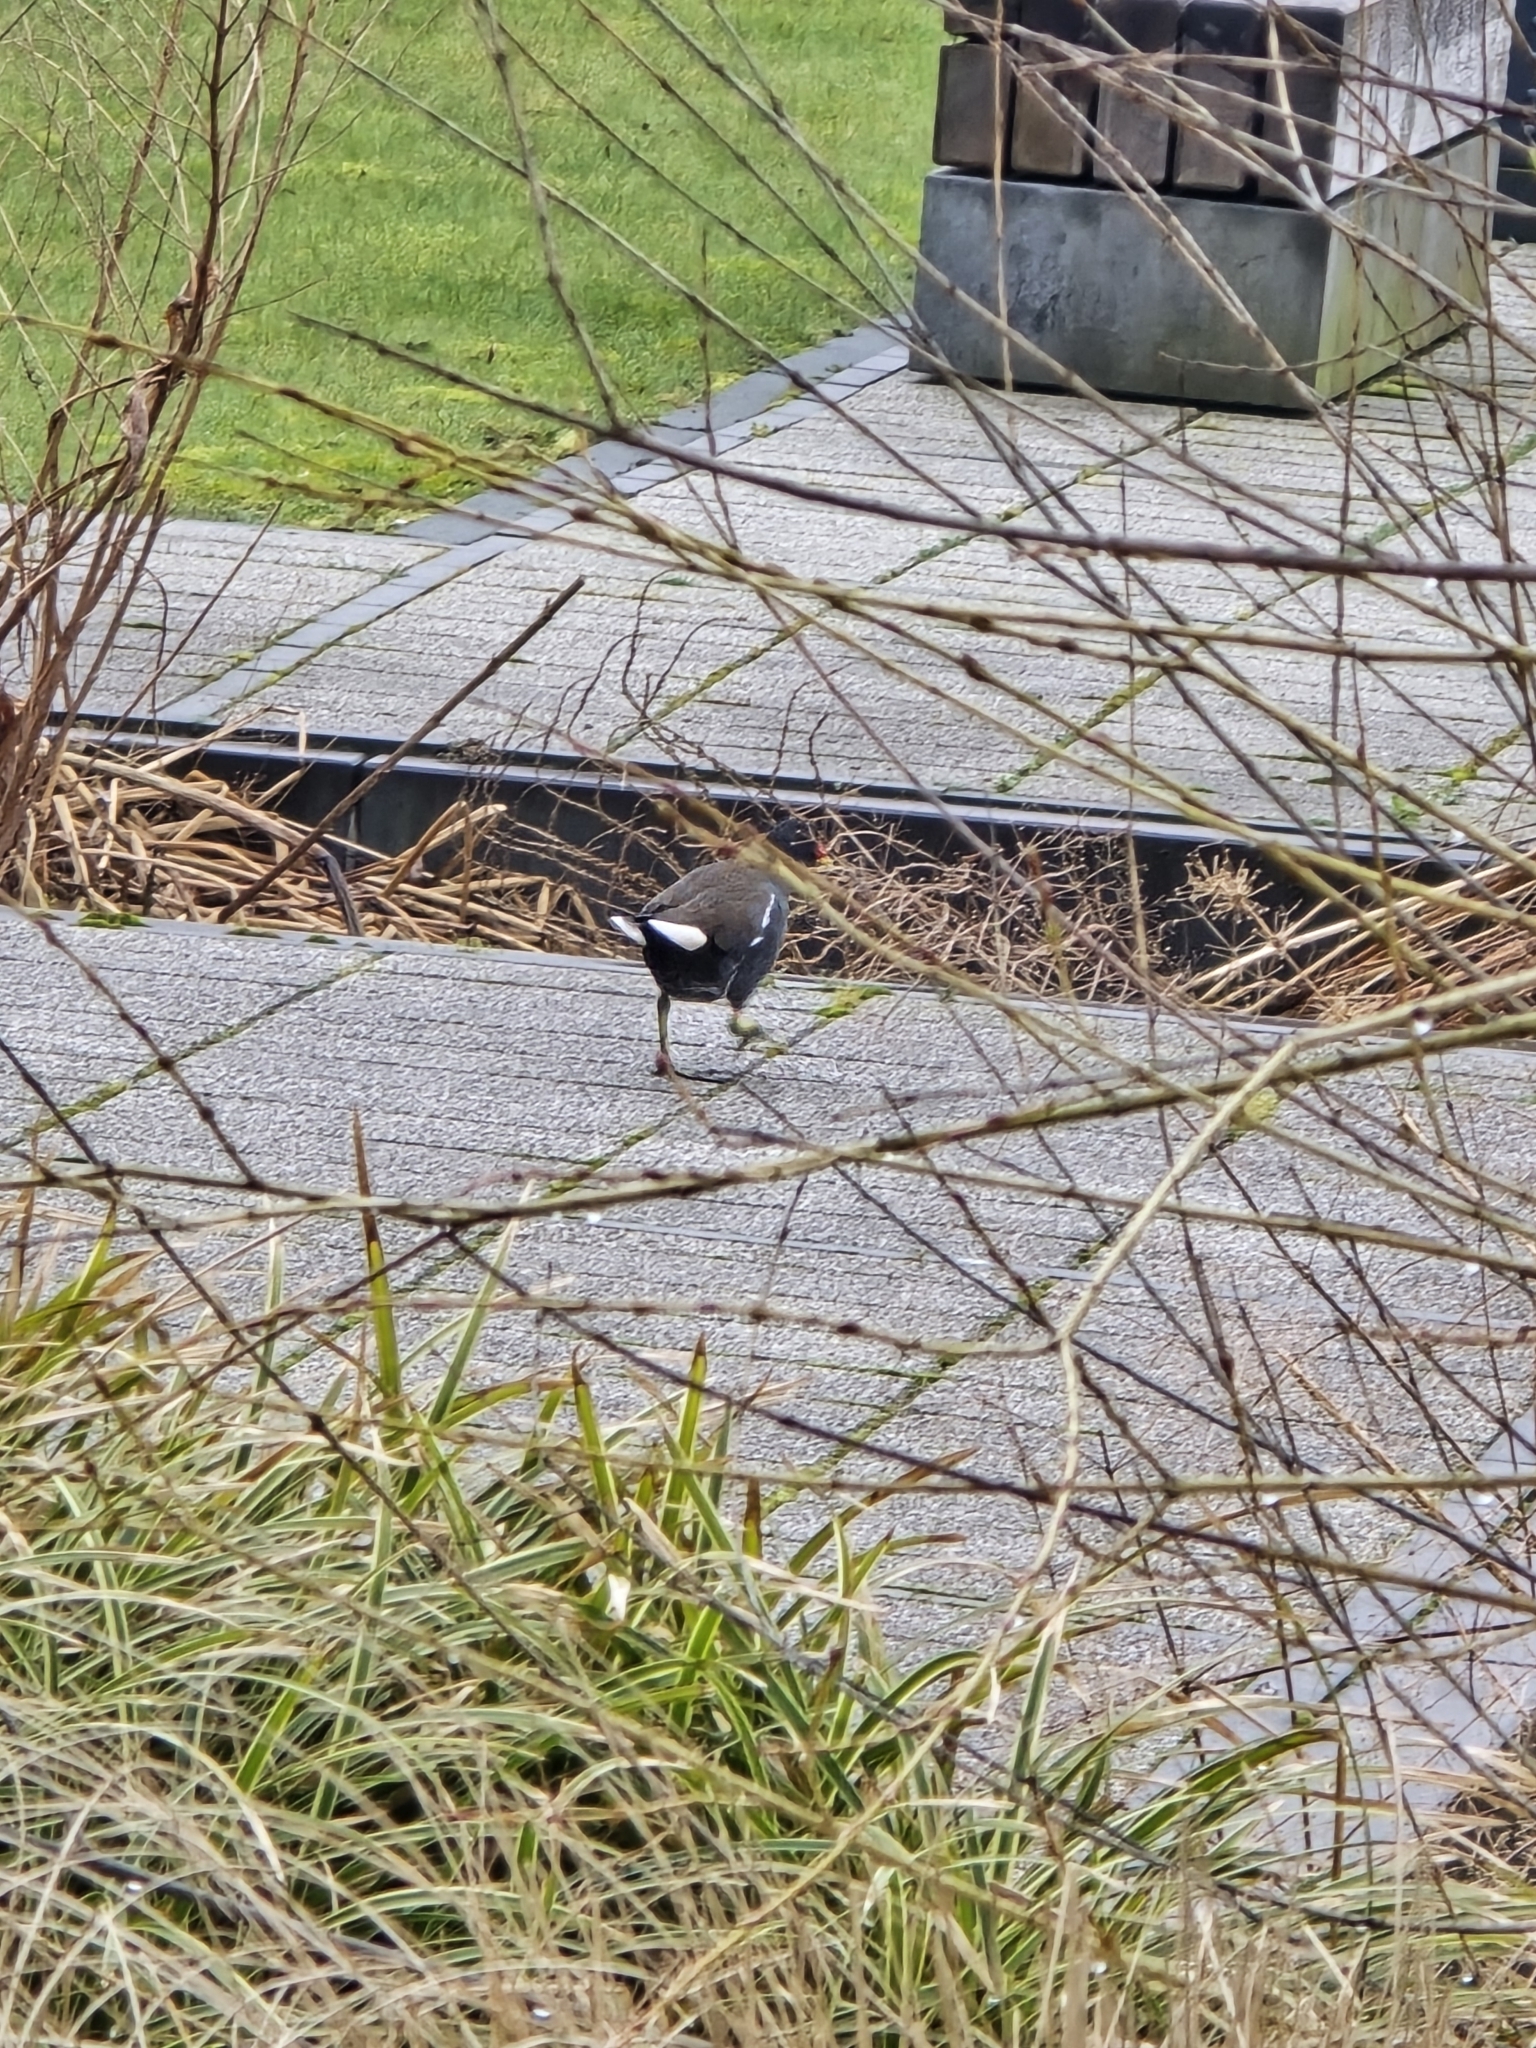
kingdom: Animalia
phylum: Chordata
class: Aves
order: Gruiformes
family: Rallidae
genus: Gallinula
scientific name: Gallinula chloropus
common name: Common moorhen
